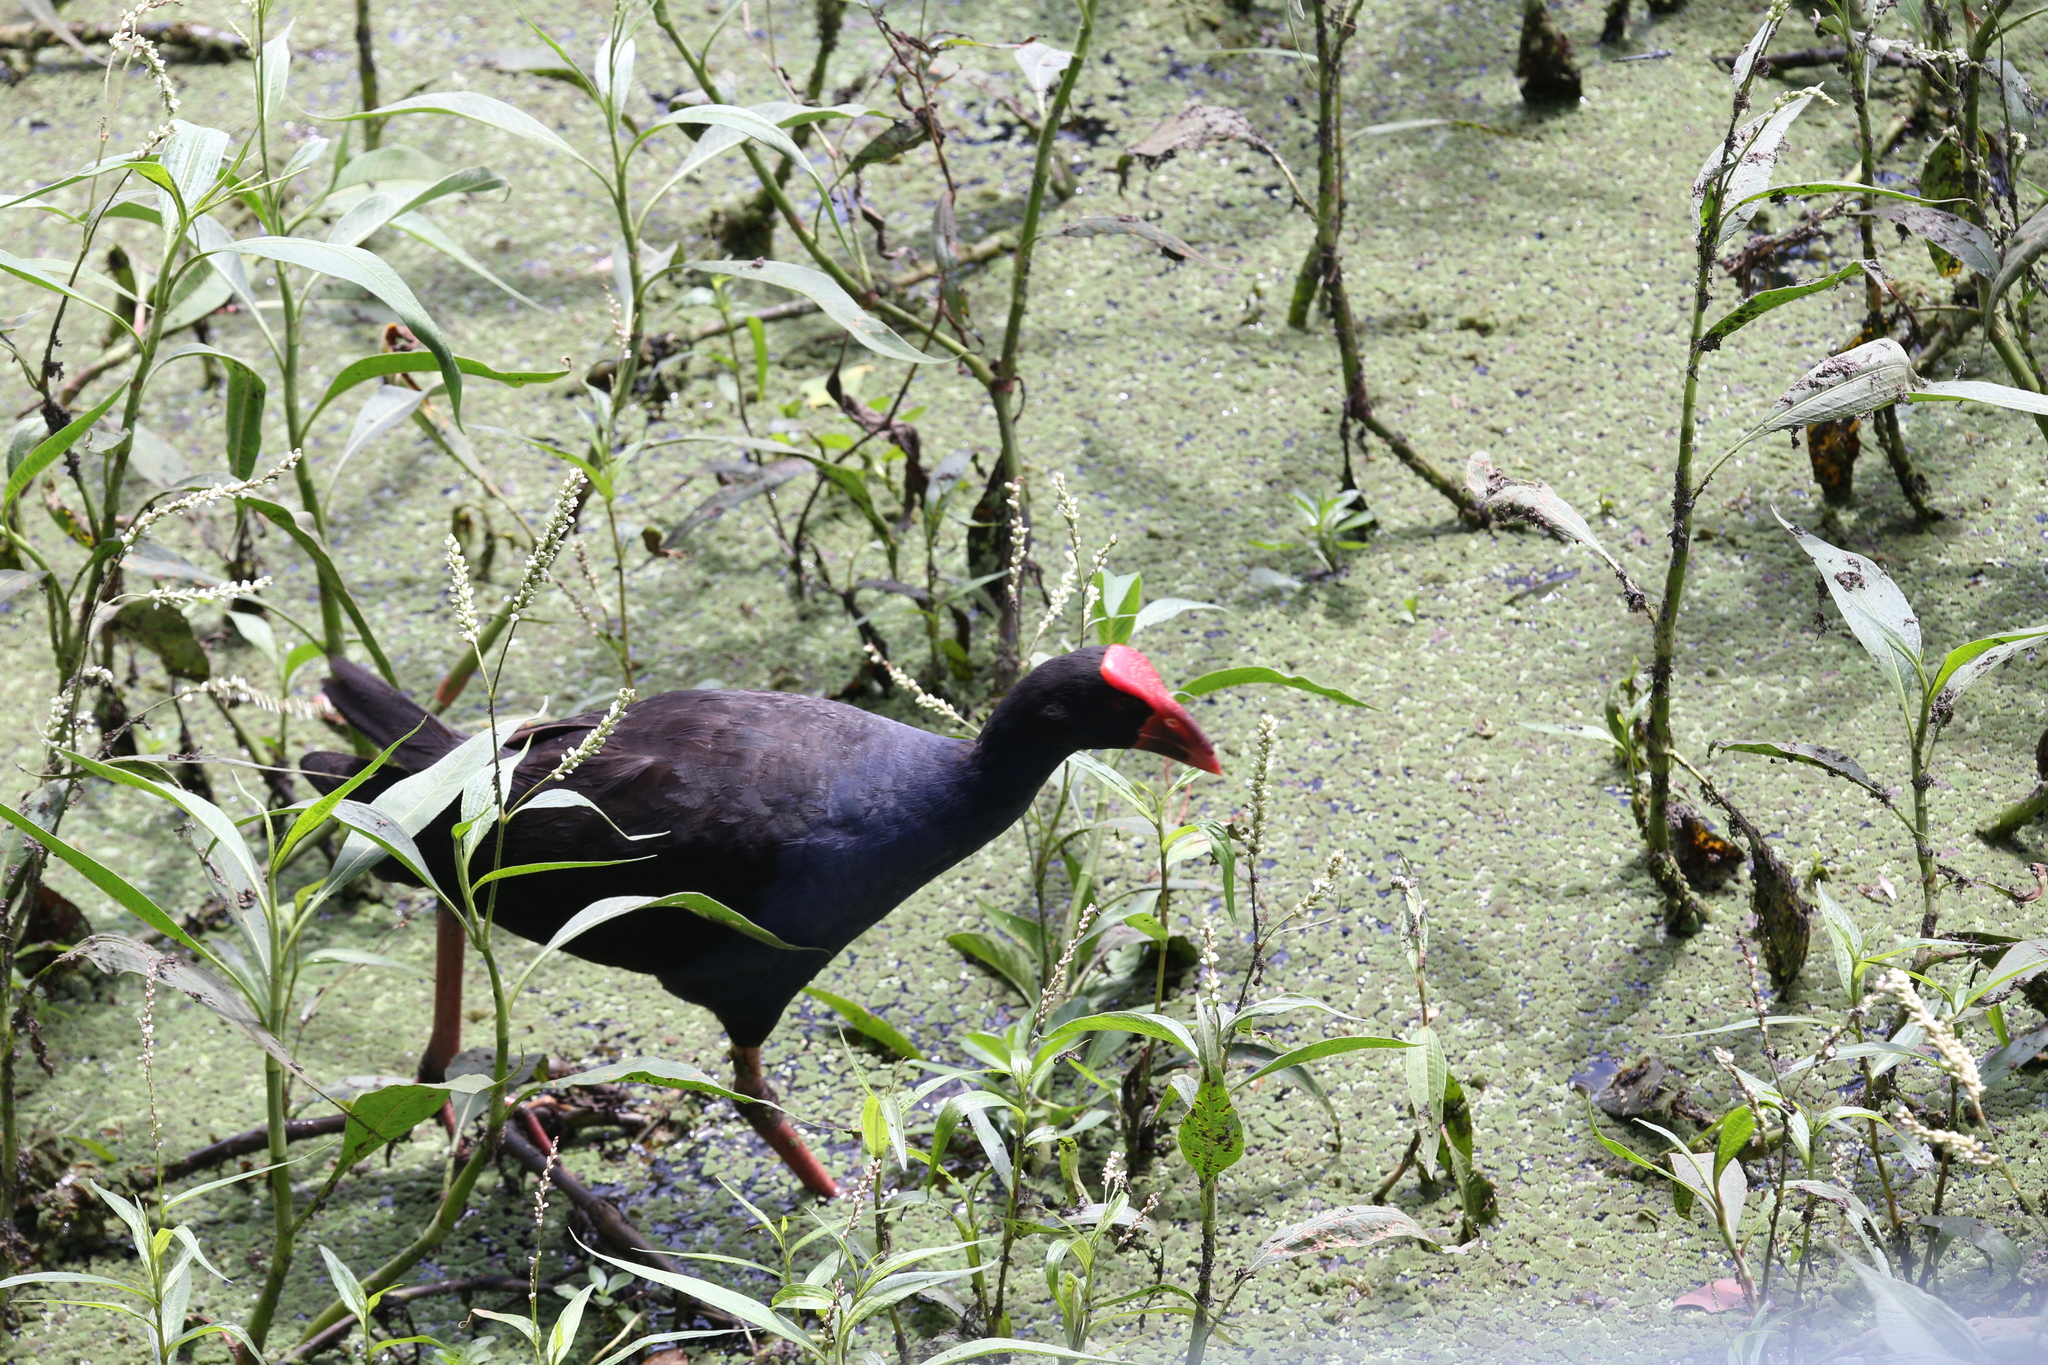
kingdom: Animalia
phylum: Chordata
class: Aves
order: Gruiformes
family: Rallidae
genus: Porphyrio
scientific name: Porphyrio melanotus
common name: Australasian swamphen
